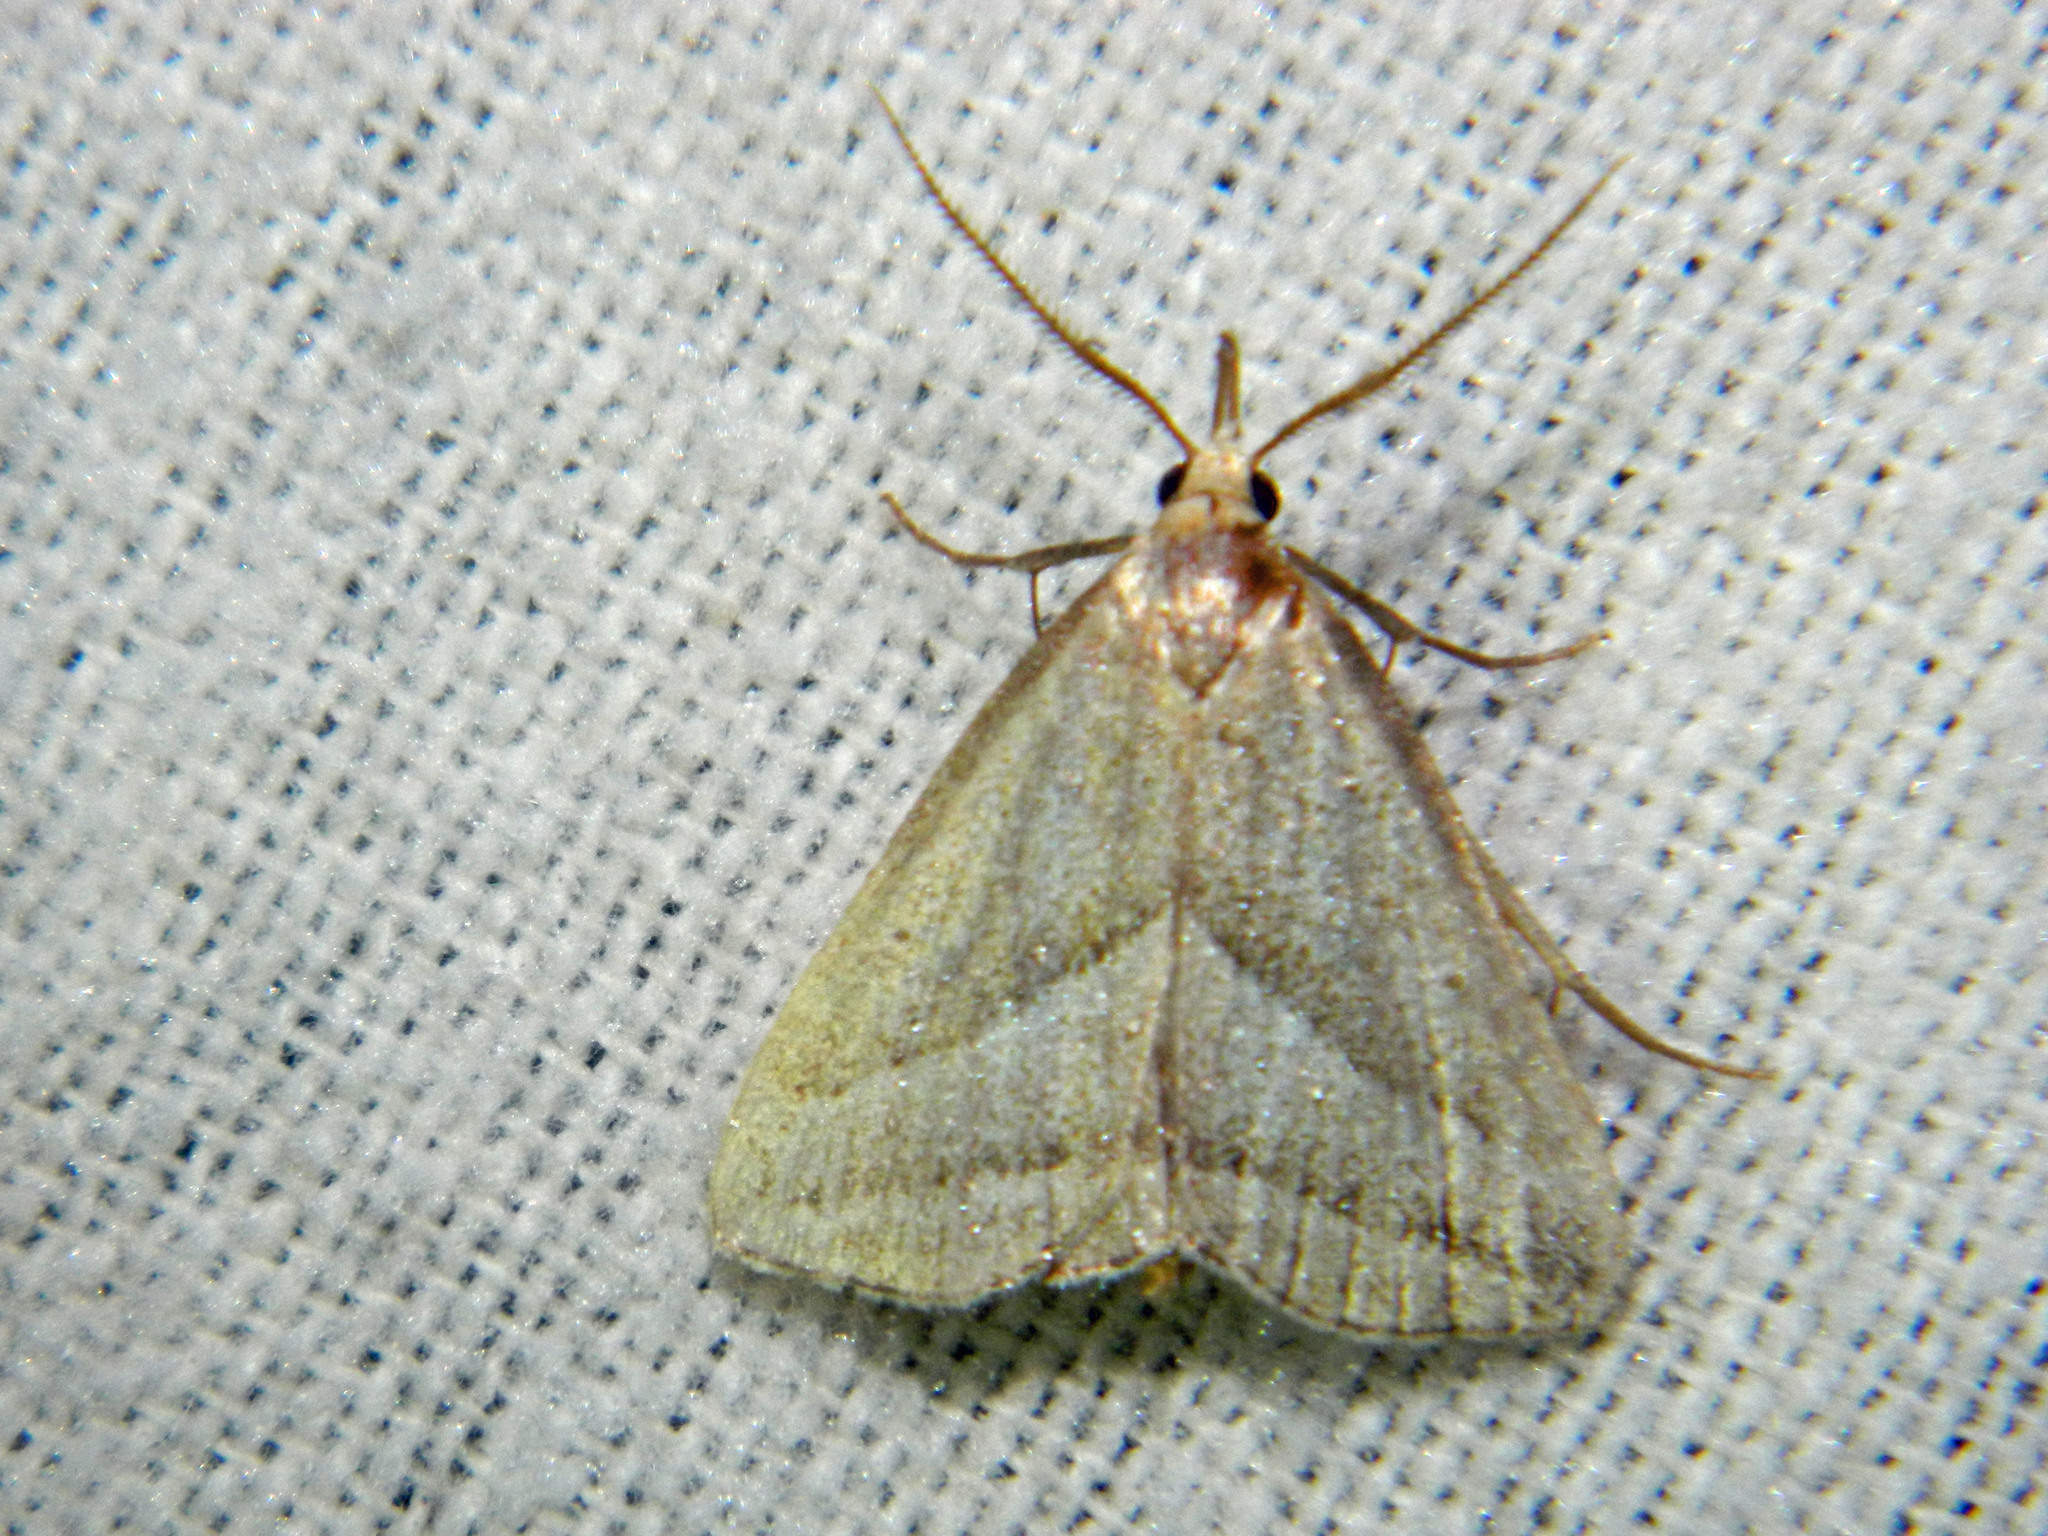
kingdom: Animalia
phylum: Arthropoda
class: Insecta
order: Lepidoptera
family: Erebidae
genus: Macrochilo
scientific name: Macrochilo absorptalis
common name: Slant-lined owlet
